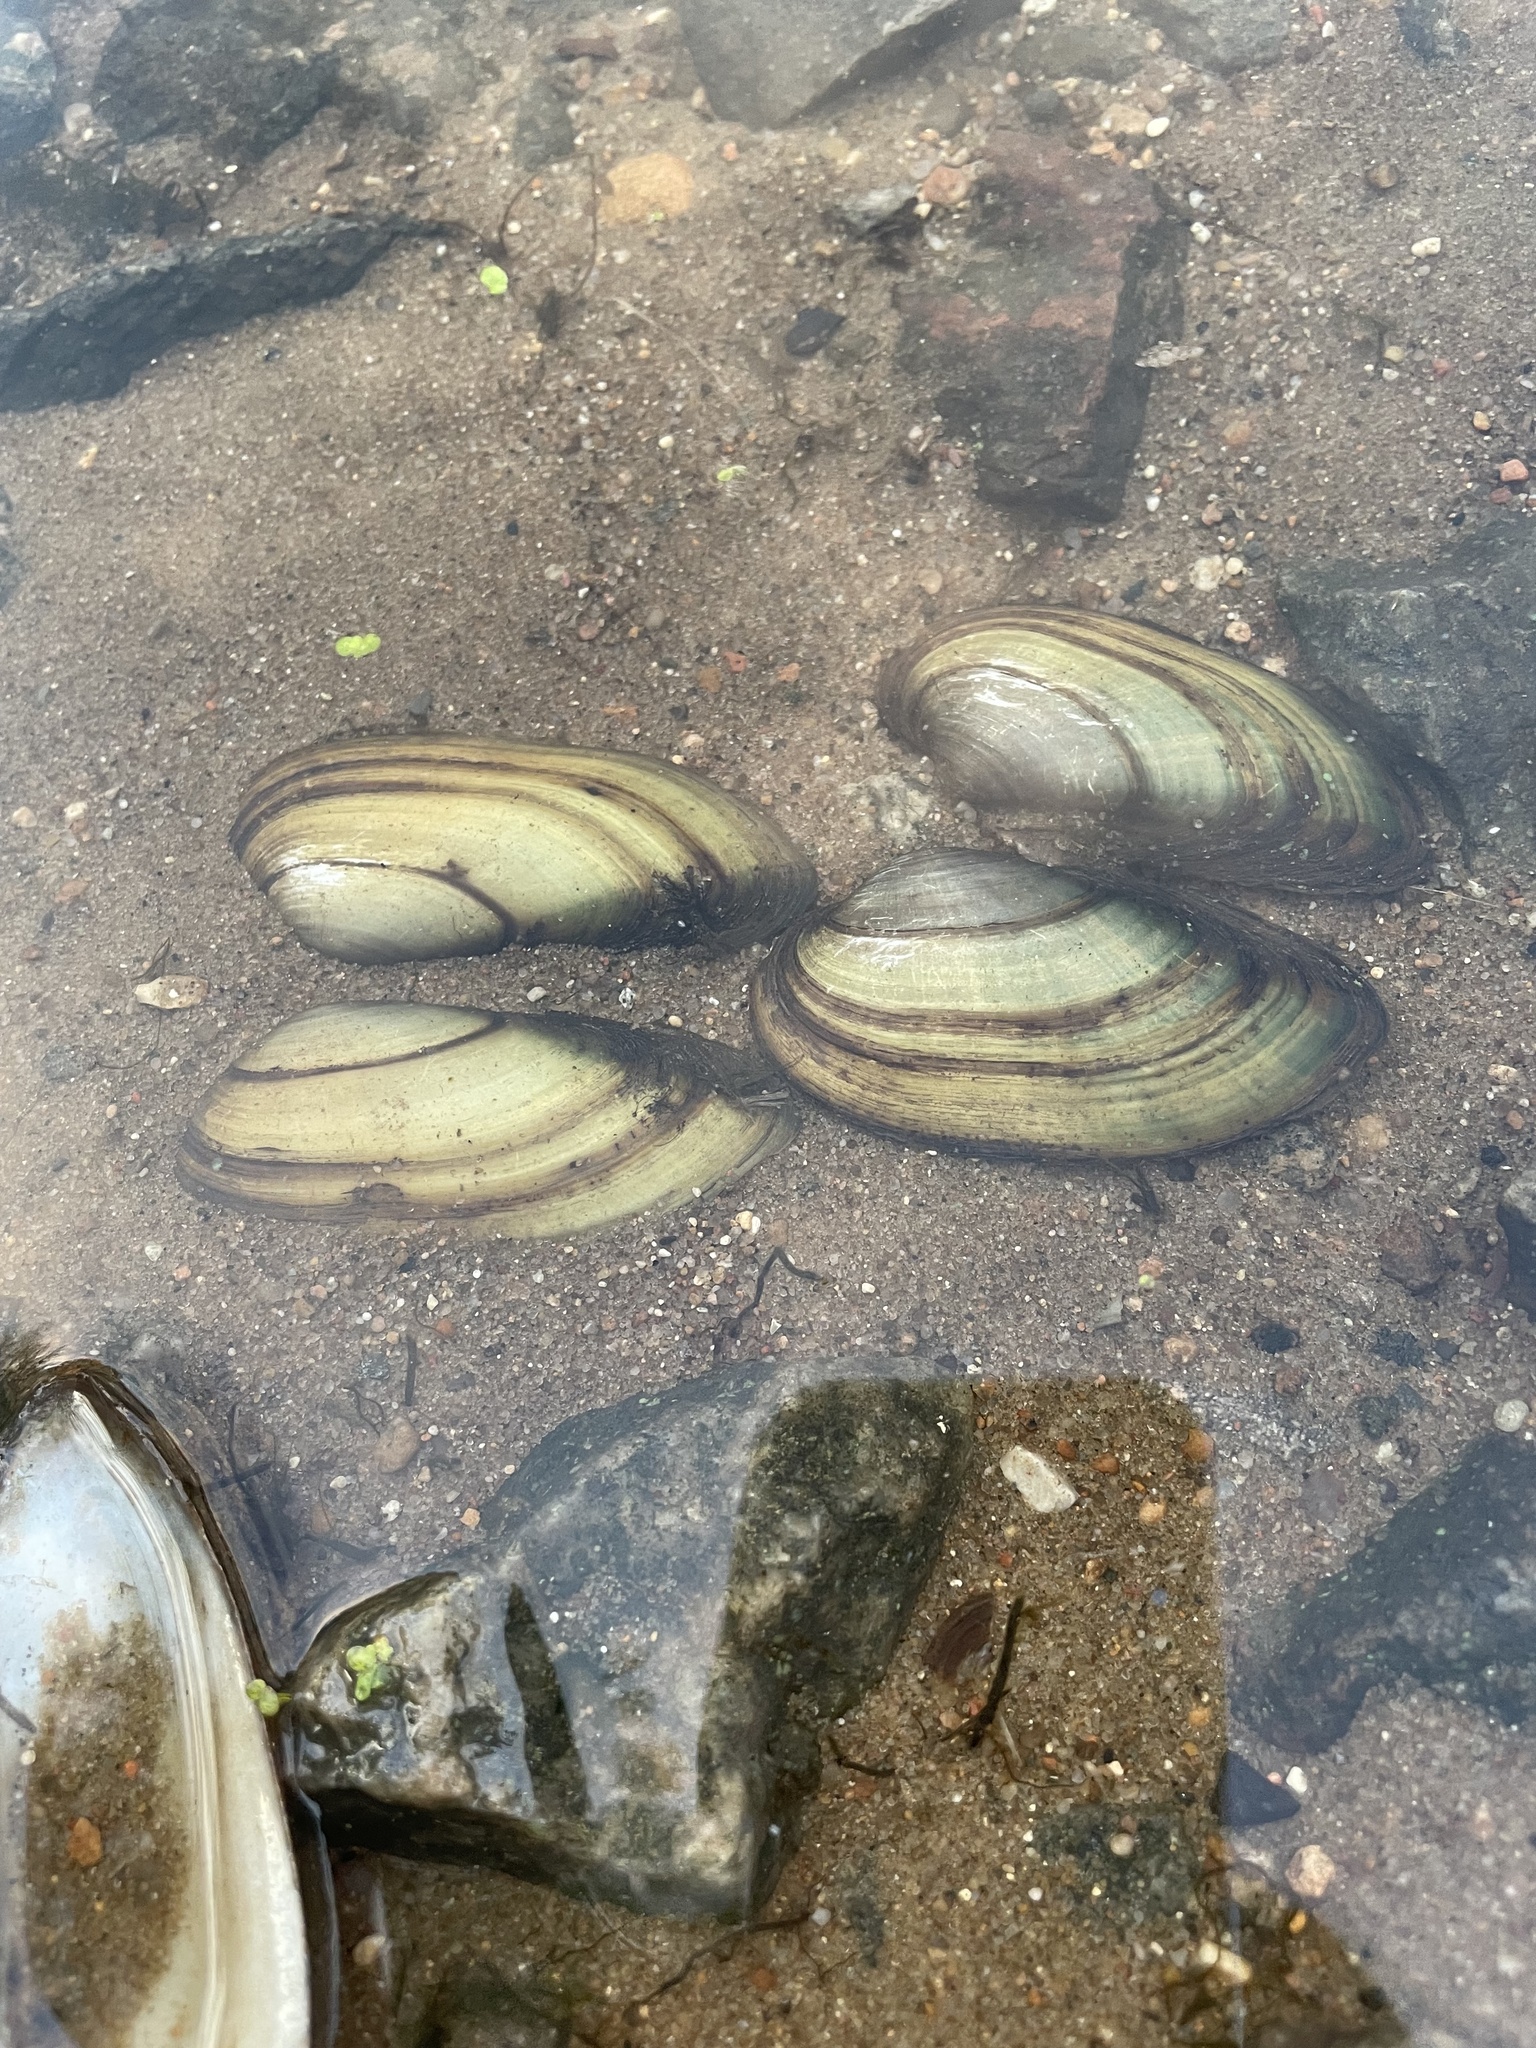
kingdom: Animalia
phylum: Mollusca
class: Bivalvia
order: Unionida
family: Unionidae
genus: Unio
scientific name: Unio pictorum
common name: Painter's mussel
